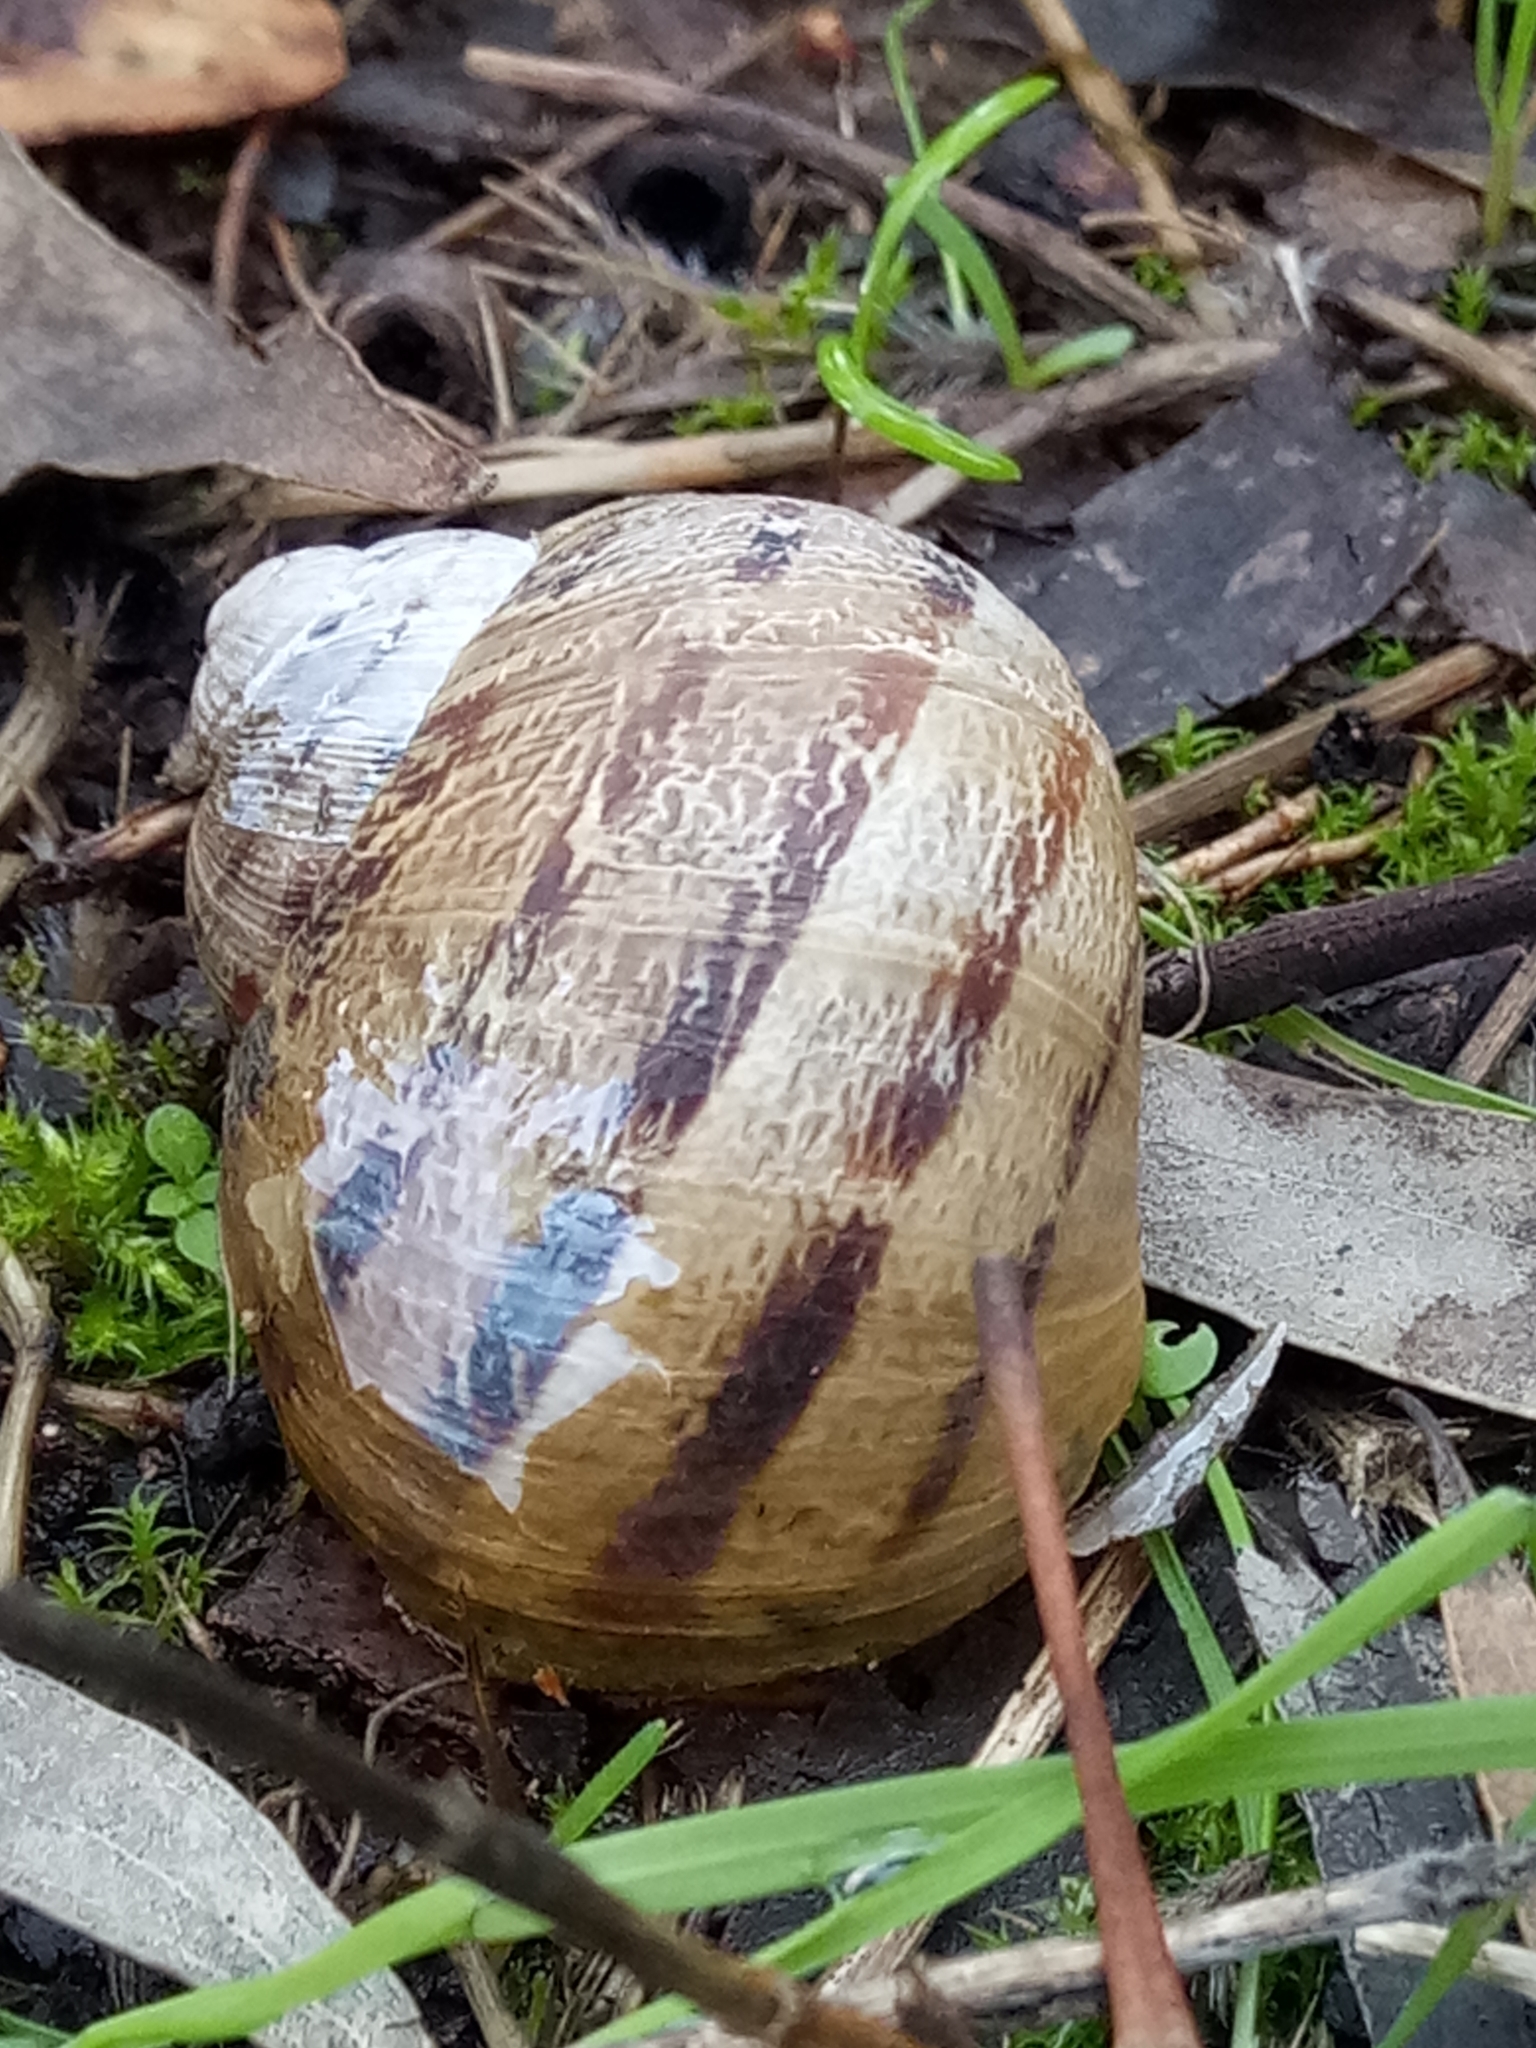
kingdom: Animalia
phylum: Mollusca
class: Gastropoda
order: Stylommatophora
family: Helicidae
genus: Cornu
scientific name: Cornu aspersum
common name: Brown garden snail
